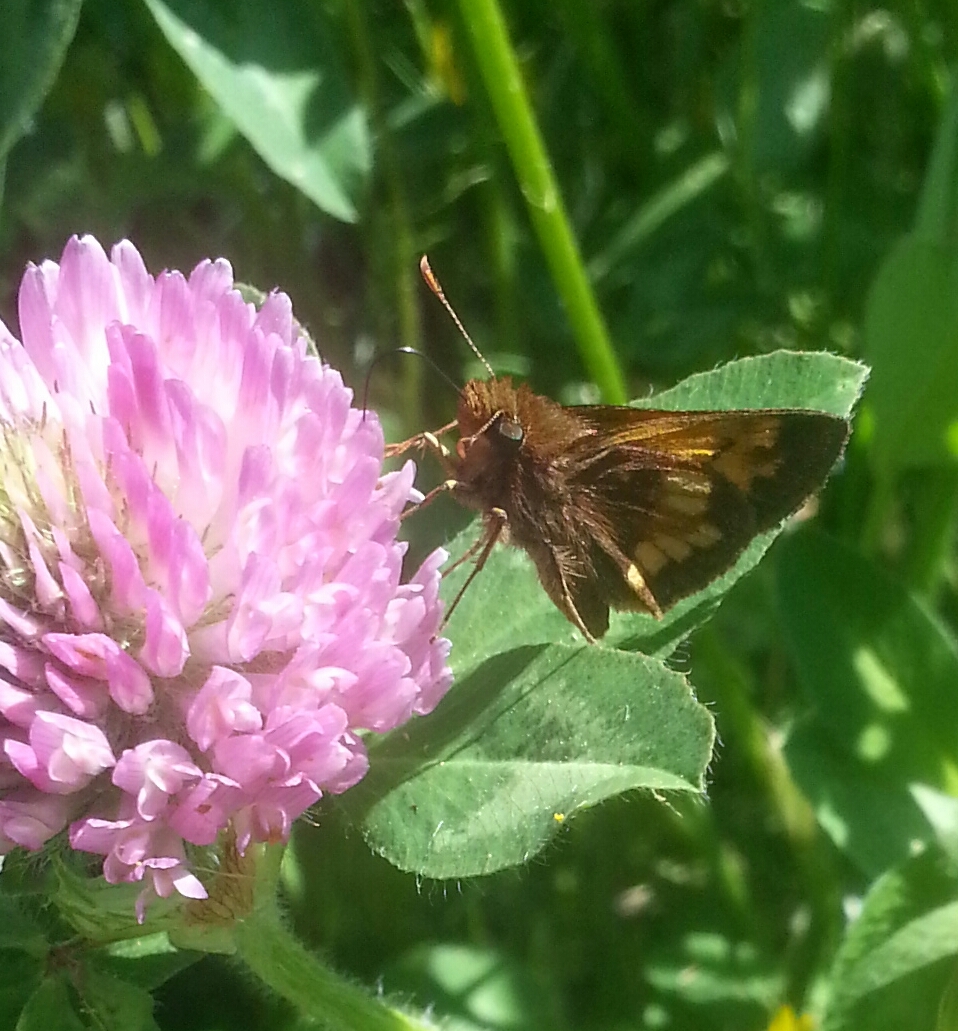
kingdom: Animalia
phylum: Arthropoda
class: Insecta
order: Lepidoptera
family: Hesperiidae
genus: Lon
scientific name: Lon hobomok
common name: Hobomok skipper
